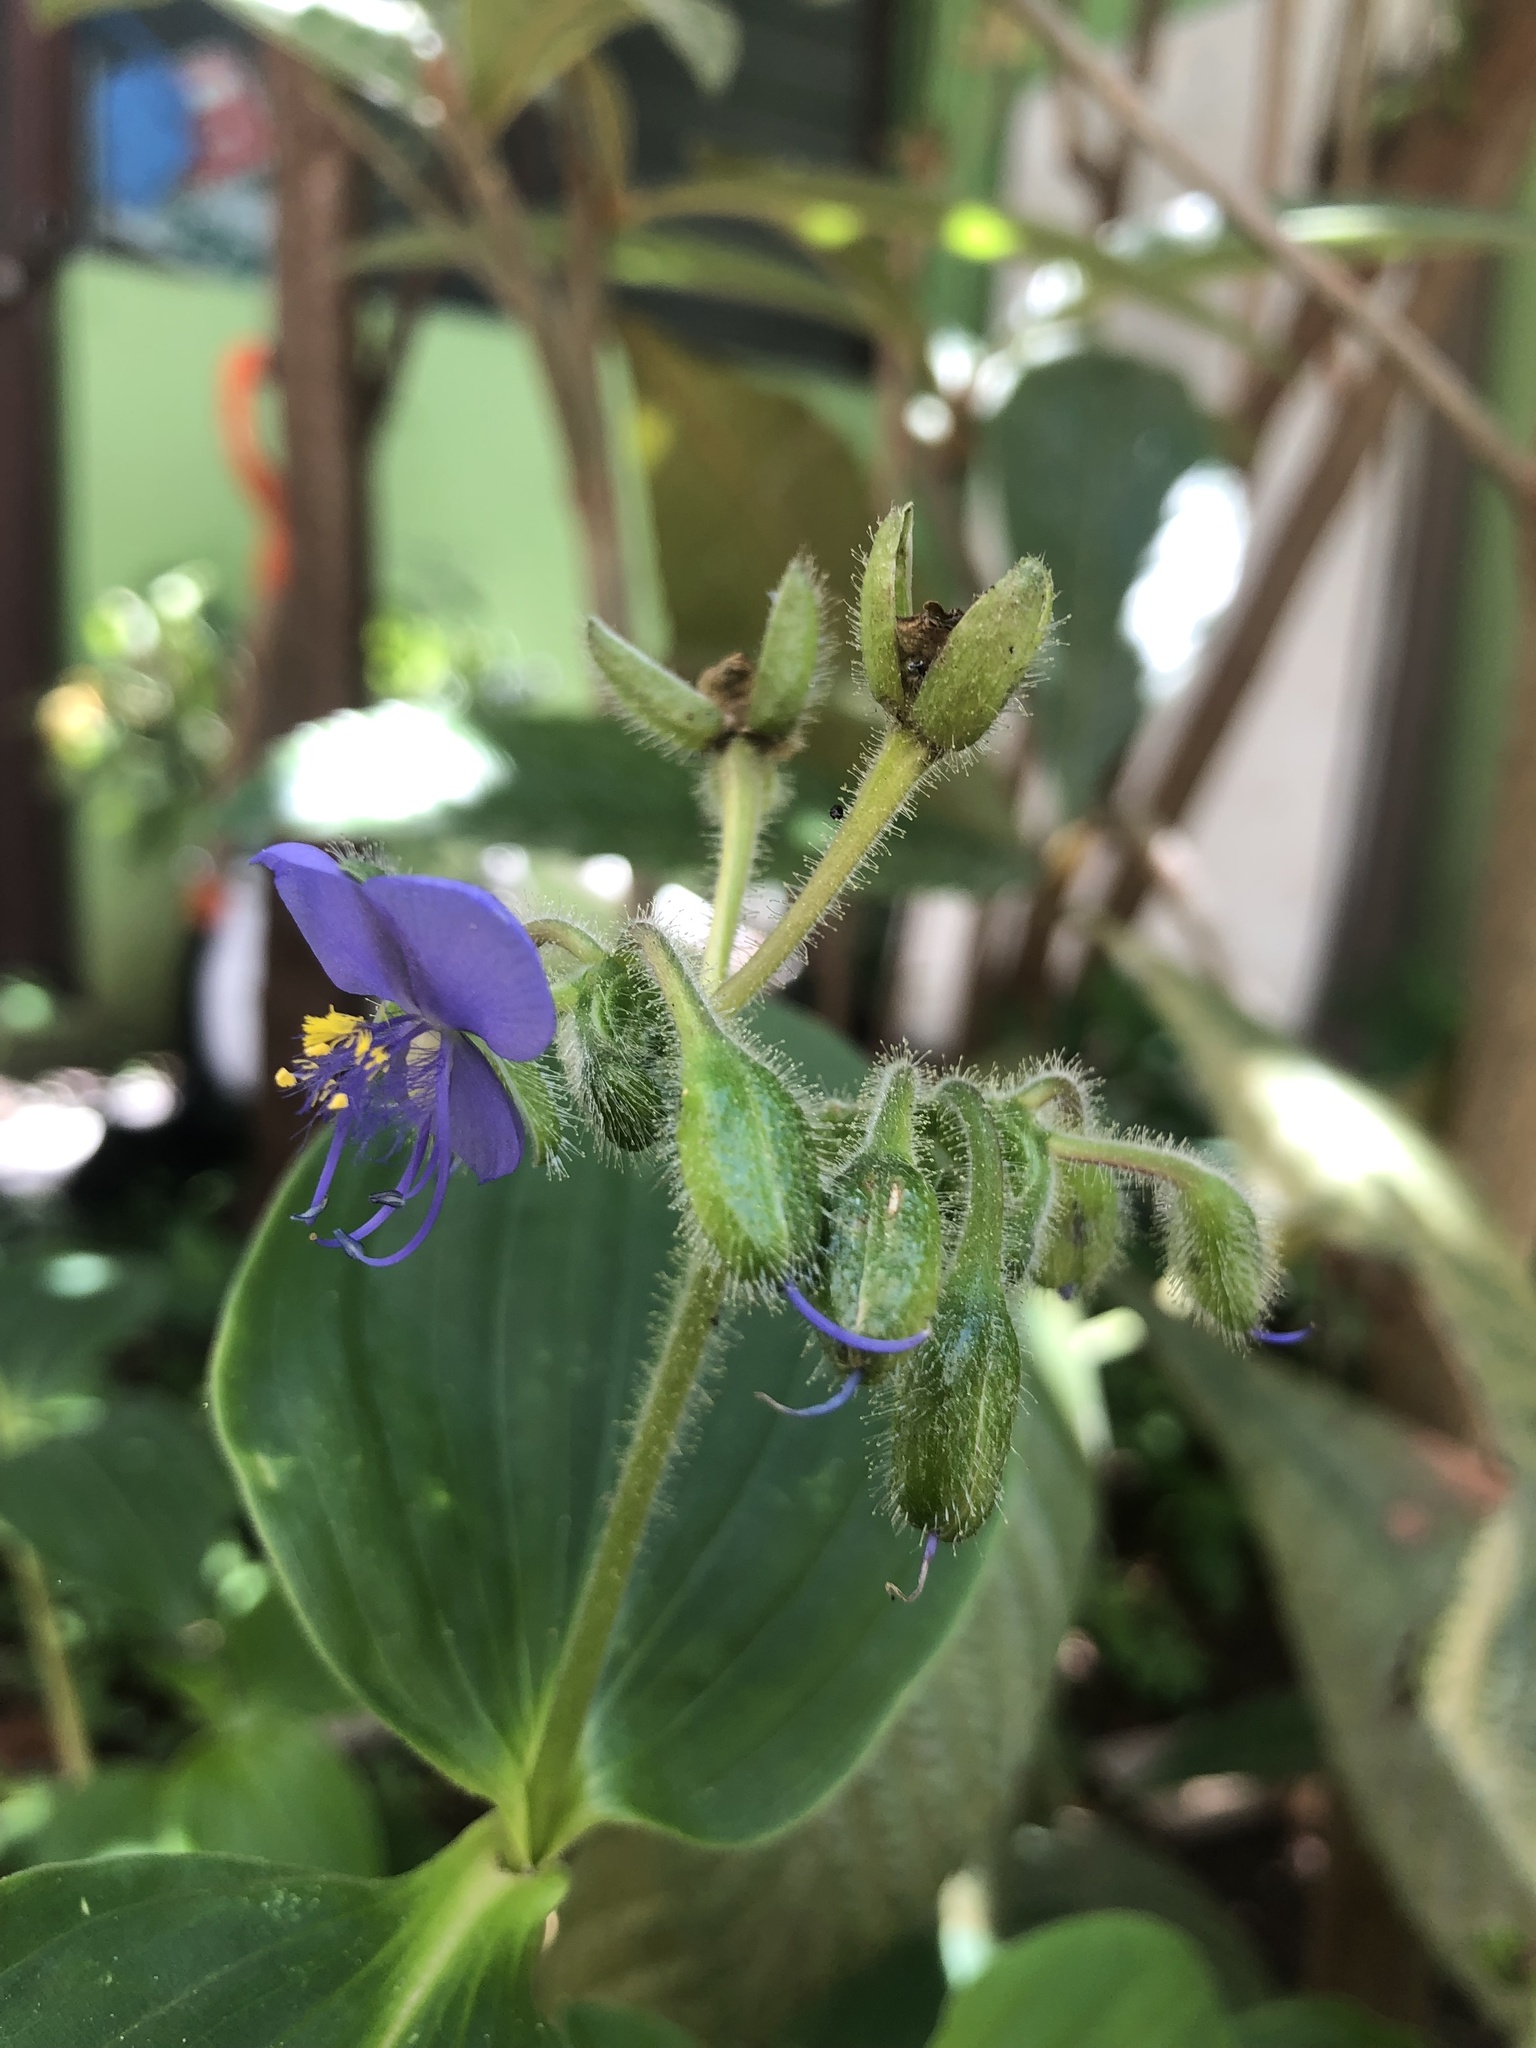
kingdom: Plantae
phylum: Tracheophyta
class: Liliopsida
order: Commelinales
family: Commelinaceae
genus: Tinantia
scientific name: Tinantia erecta
